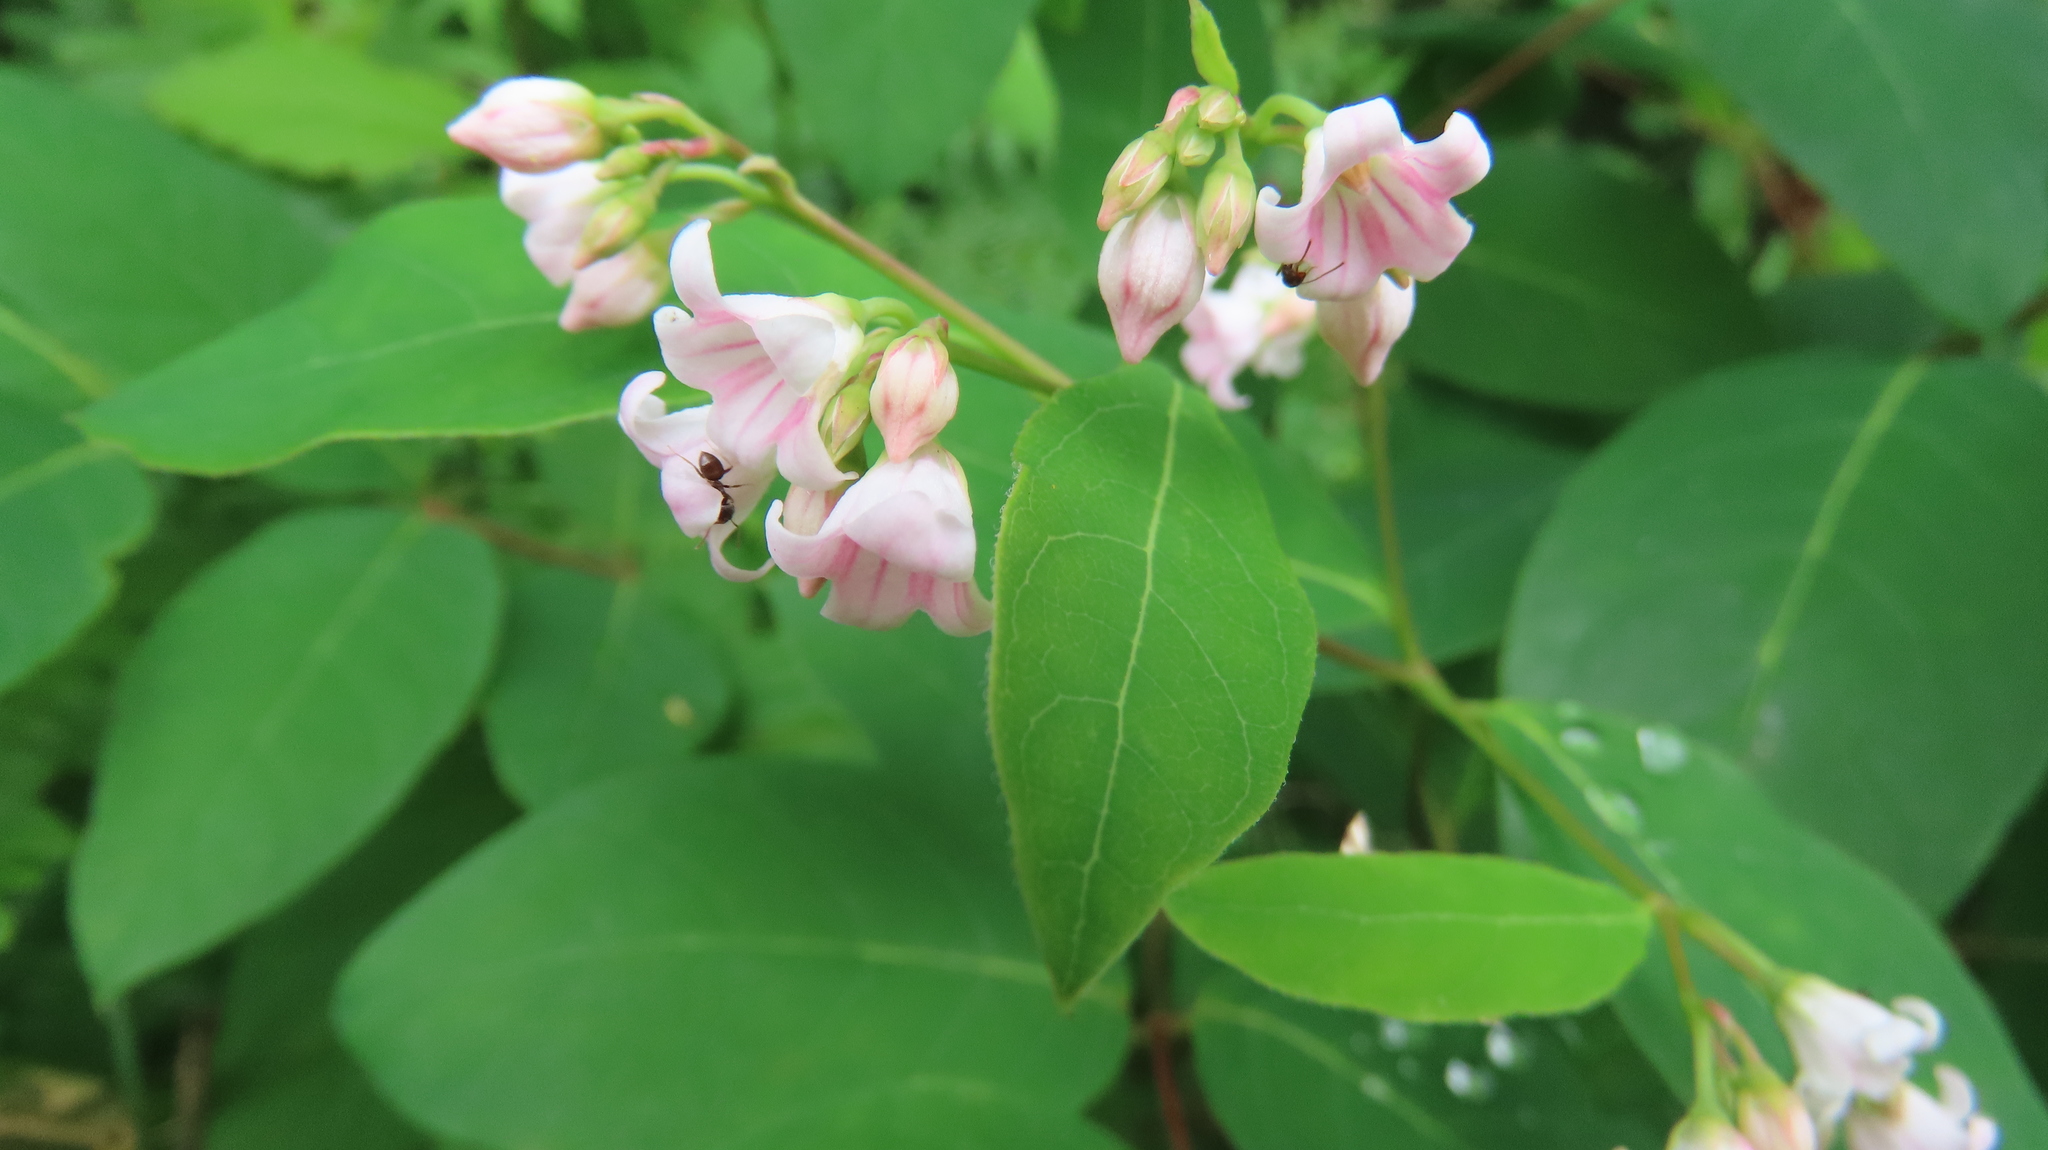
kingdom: Plantae
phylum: Tracheophyta
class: Magnoliopsida
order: Gentianales
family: Apocynaceae
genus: Apocynum
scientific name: Apocynum androsaemifolium
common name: Spreading dogbane
